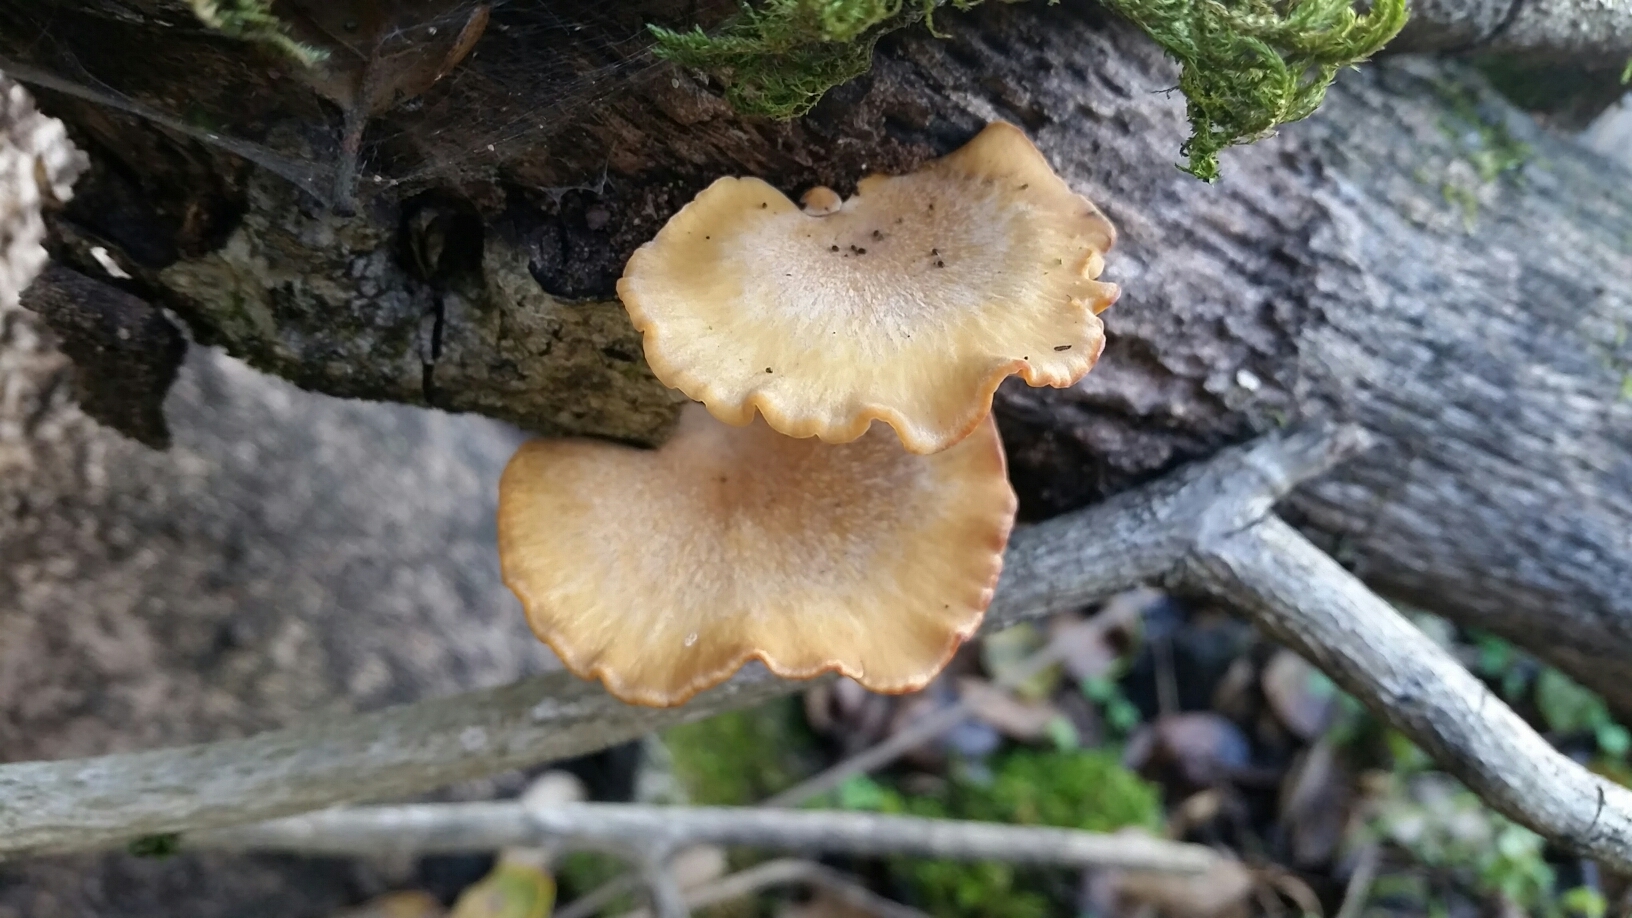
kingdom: Fungi
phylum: Basidiomycota
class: Agaricomycetes
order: Polyporales
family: Polyporaceae
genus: Cerioporus
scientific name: Cerioporus leptocephalus
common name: Blackfoot polypore
